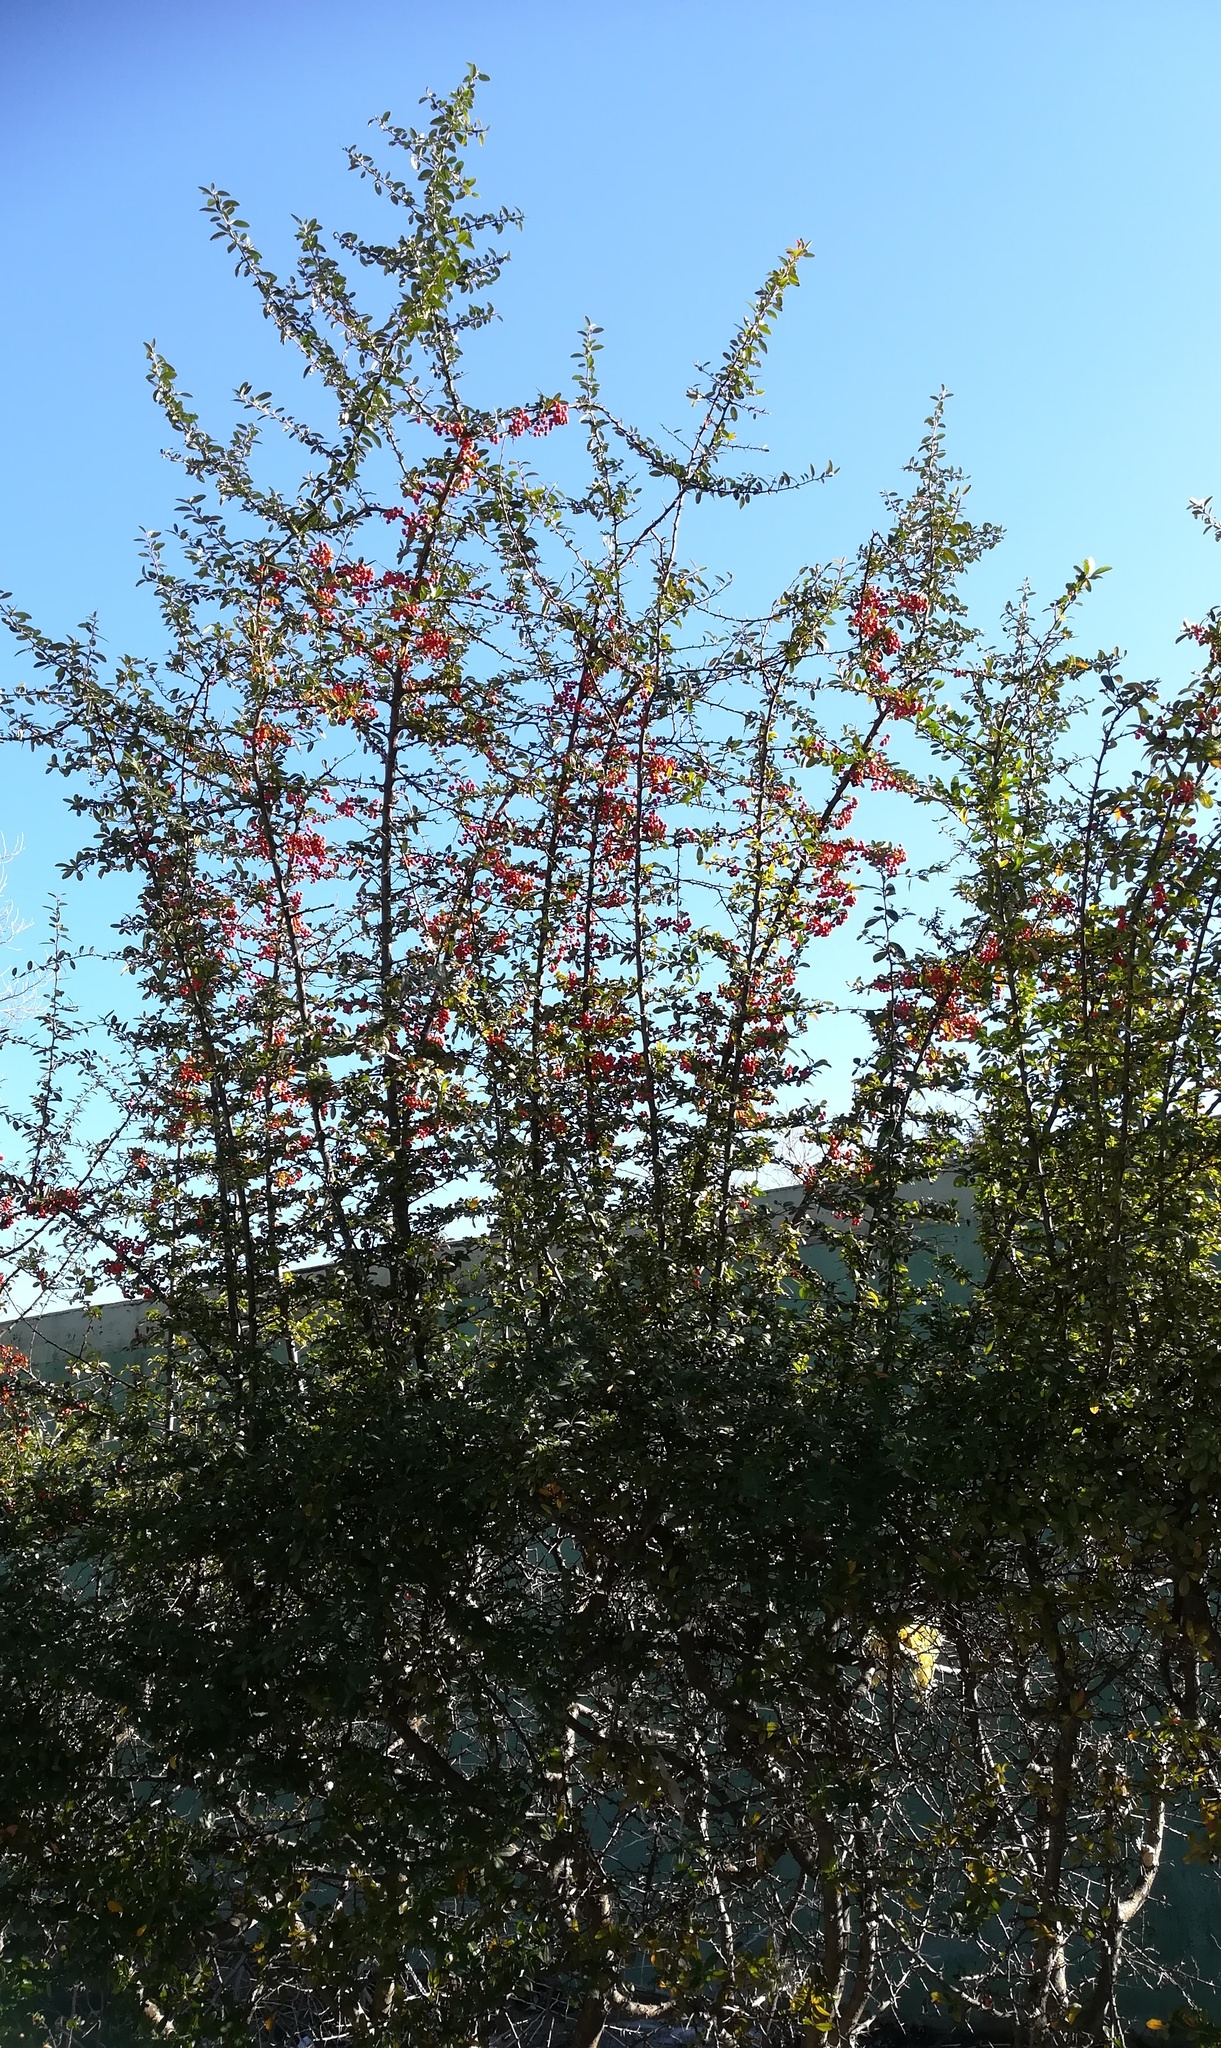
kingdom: Plantae
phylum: Tracheophyta
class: Magnoliopsida
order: Rosales
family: Rosaceae
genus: Pyracantha
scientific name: Pyracantha coccinea
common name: Firethorn
